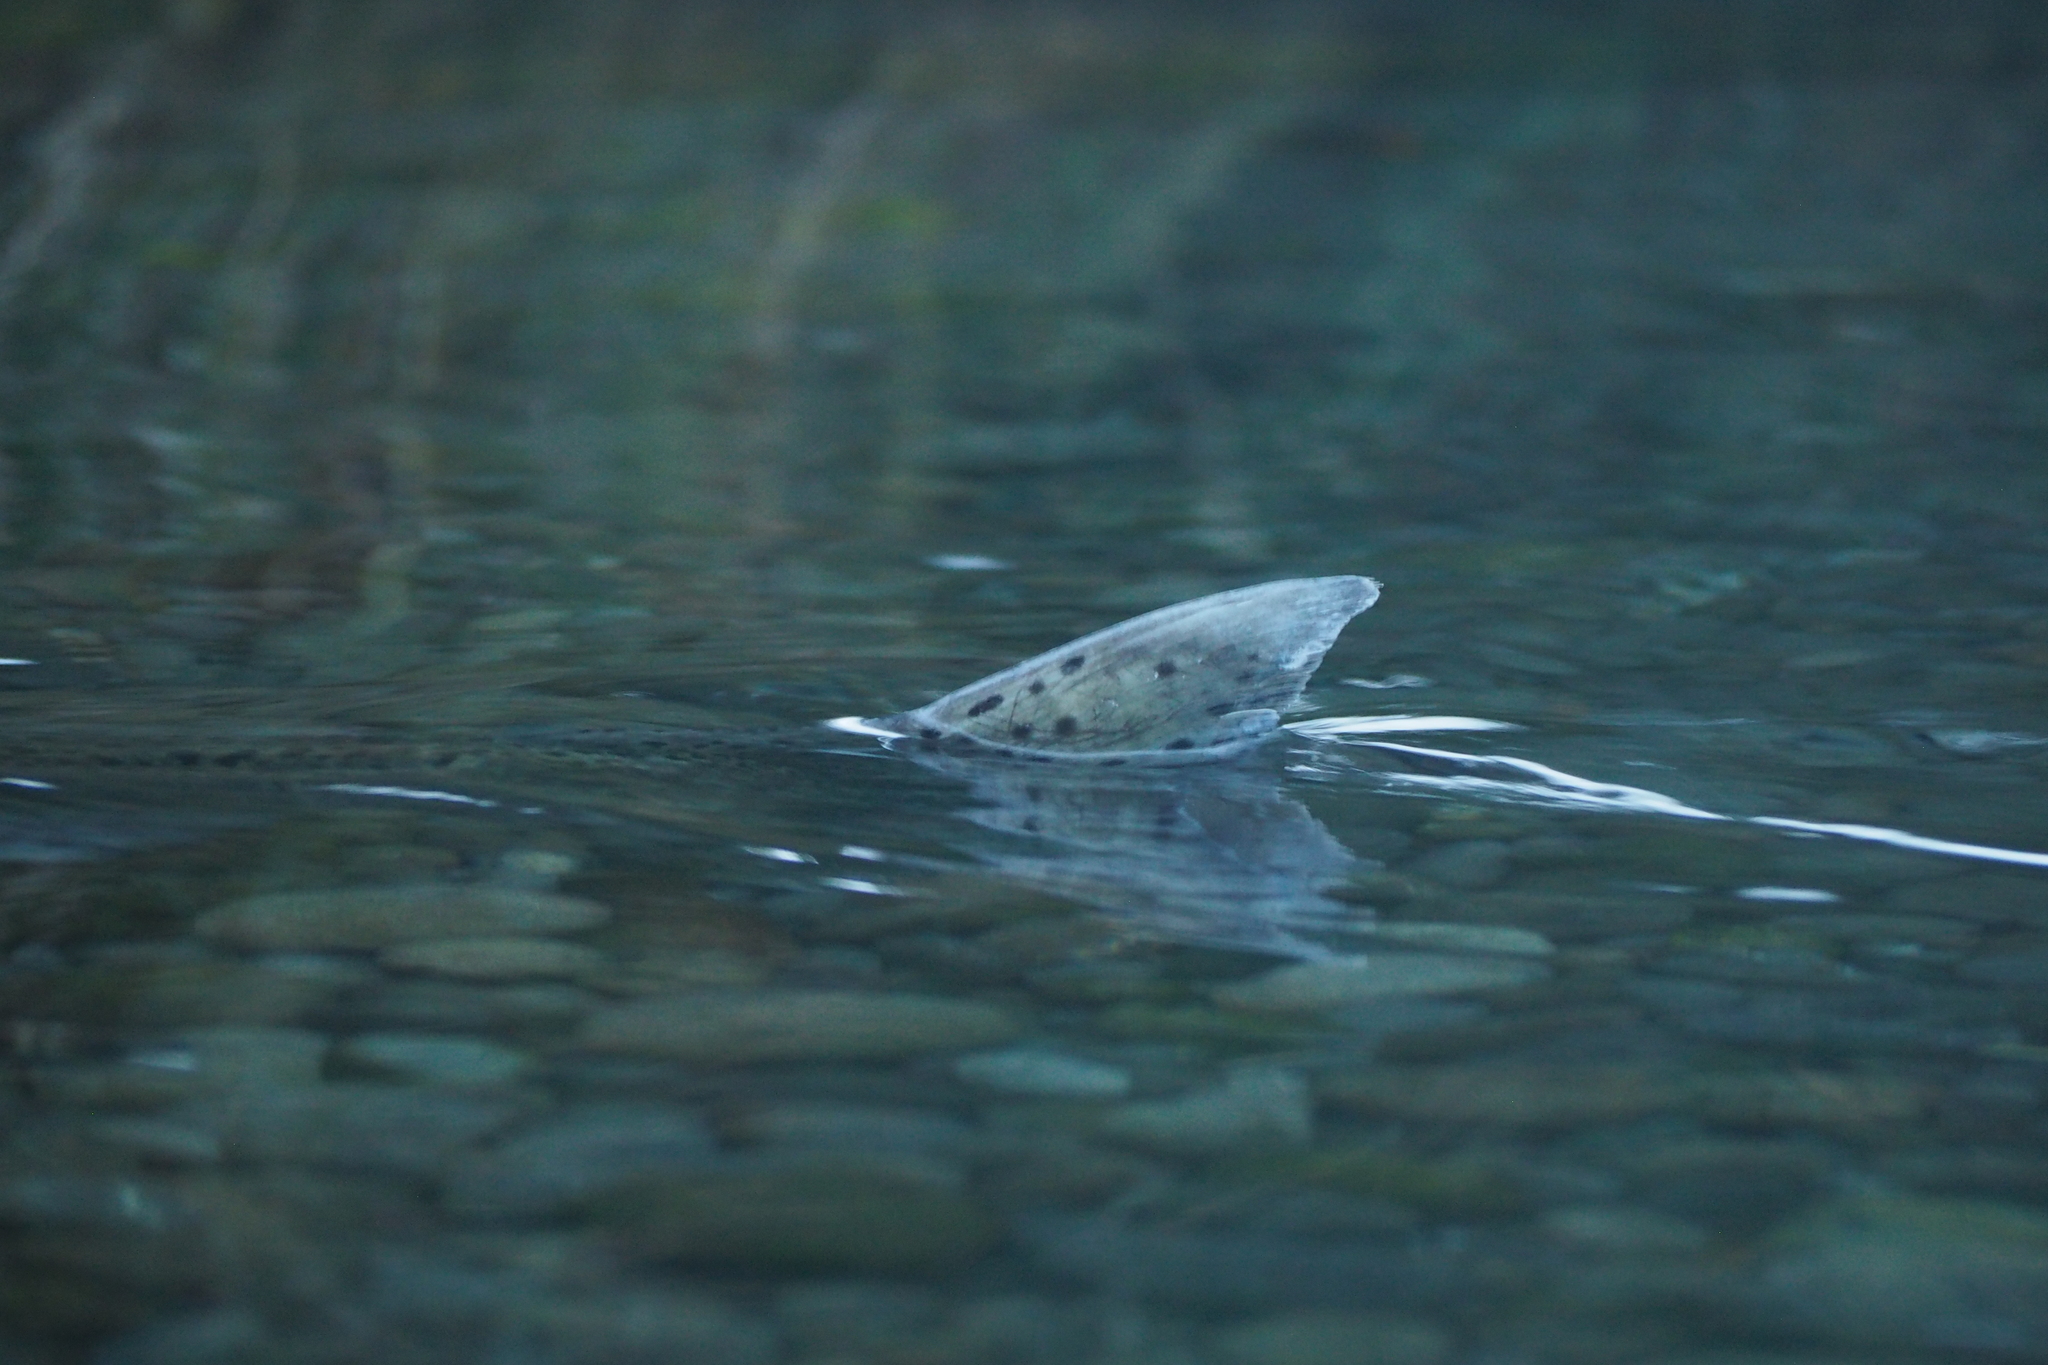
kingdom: Animalia
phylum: Chordata
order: Salmoniformes
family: Salmonidae
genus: Oncorhynchus
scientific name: Oncorhynchus tshawytscha
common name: Chinook salmon
